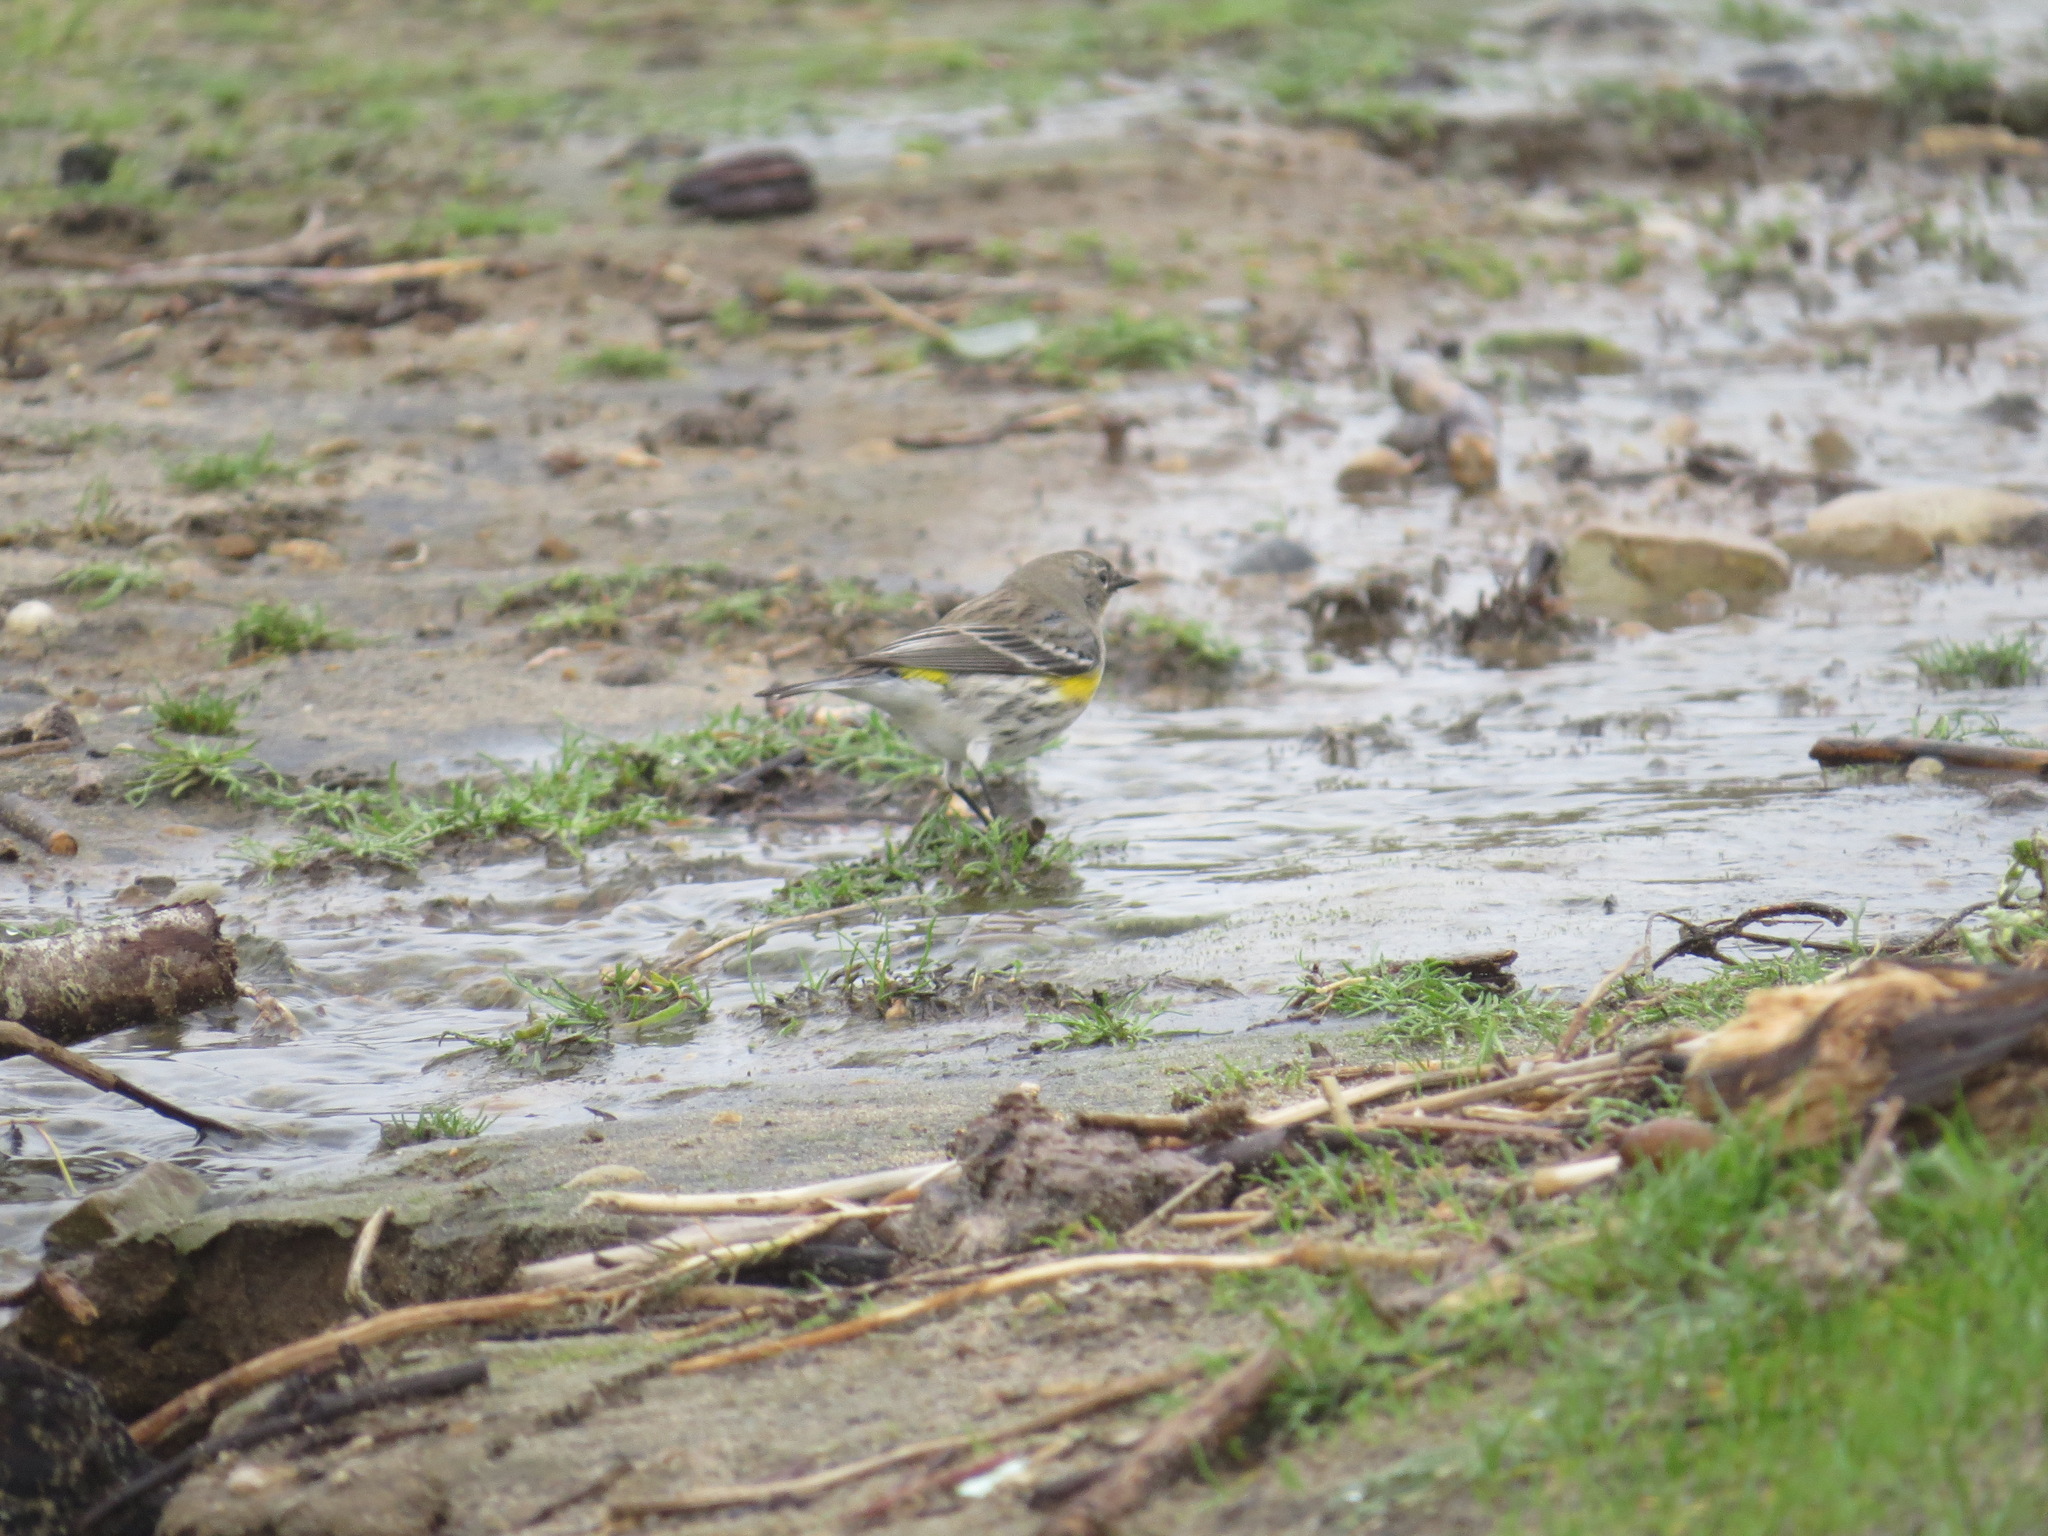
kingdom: Animalia
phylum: Chordata
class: Aves
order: Passeriformes
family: Parulidae
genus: Setophaga
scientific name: Setophaga coronata
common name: Myrtle warbler
